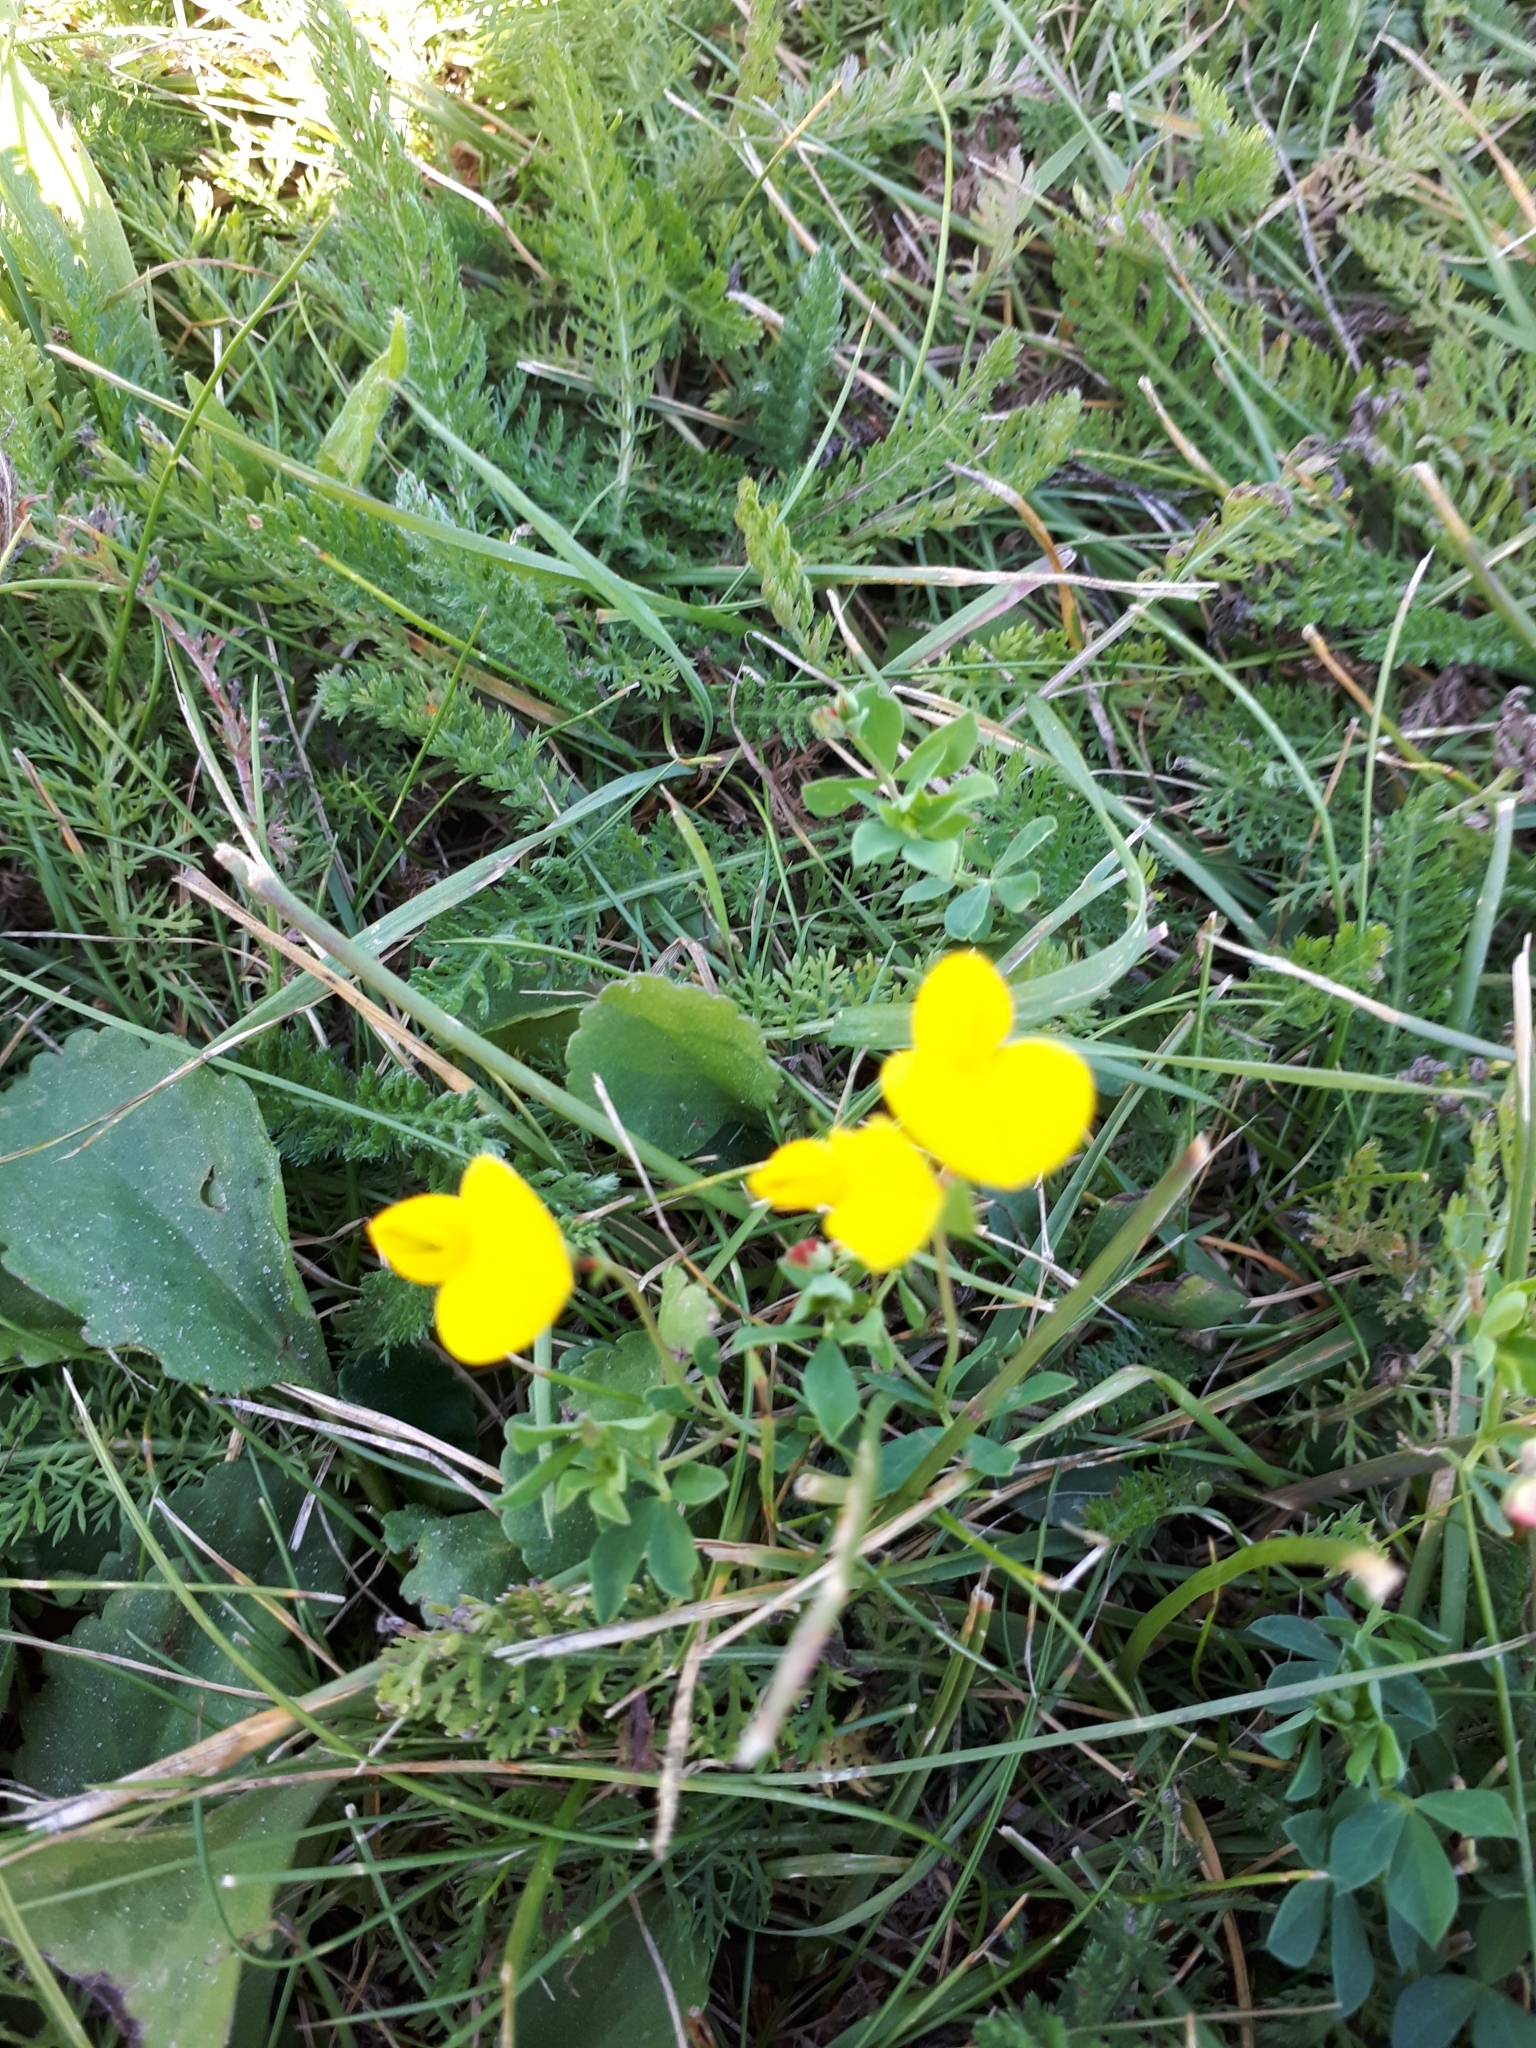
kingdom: Plantae
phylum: Tracheophyta
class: Magnoliopsida
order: Fabales
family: Fabaceae
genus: Lotus
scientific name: Lotus corniculatus
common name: Common bird's-foot-trefoil
